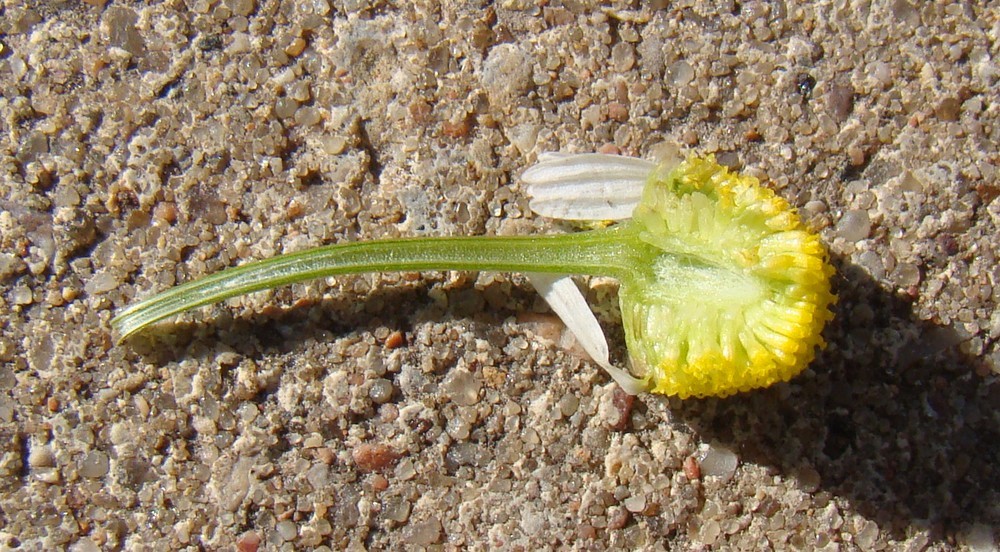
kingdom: Plantae
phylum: Tracheophyta
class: Magnoliopsida
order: Asterales
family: Asteraceae
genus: Matricaria
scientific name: Matricaria chamomilla
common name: Scented mayweed
